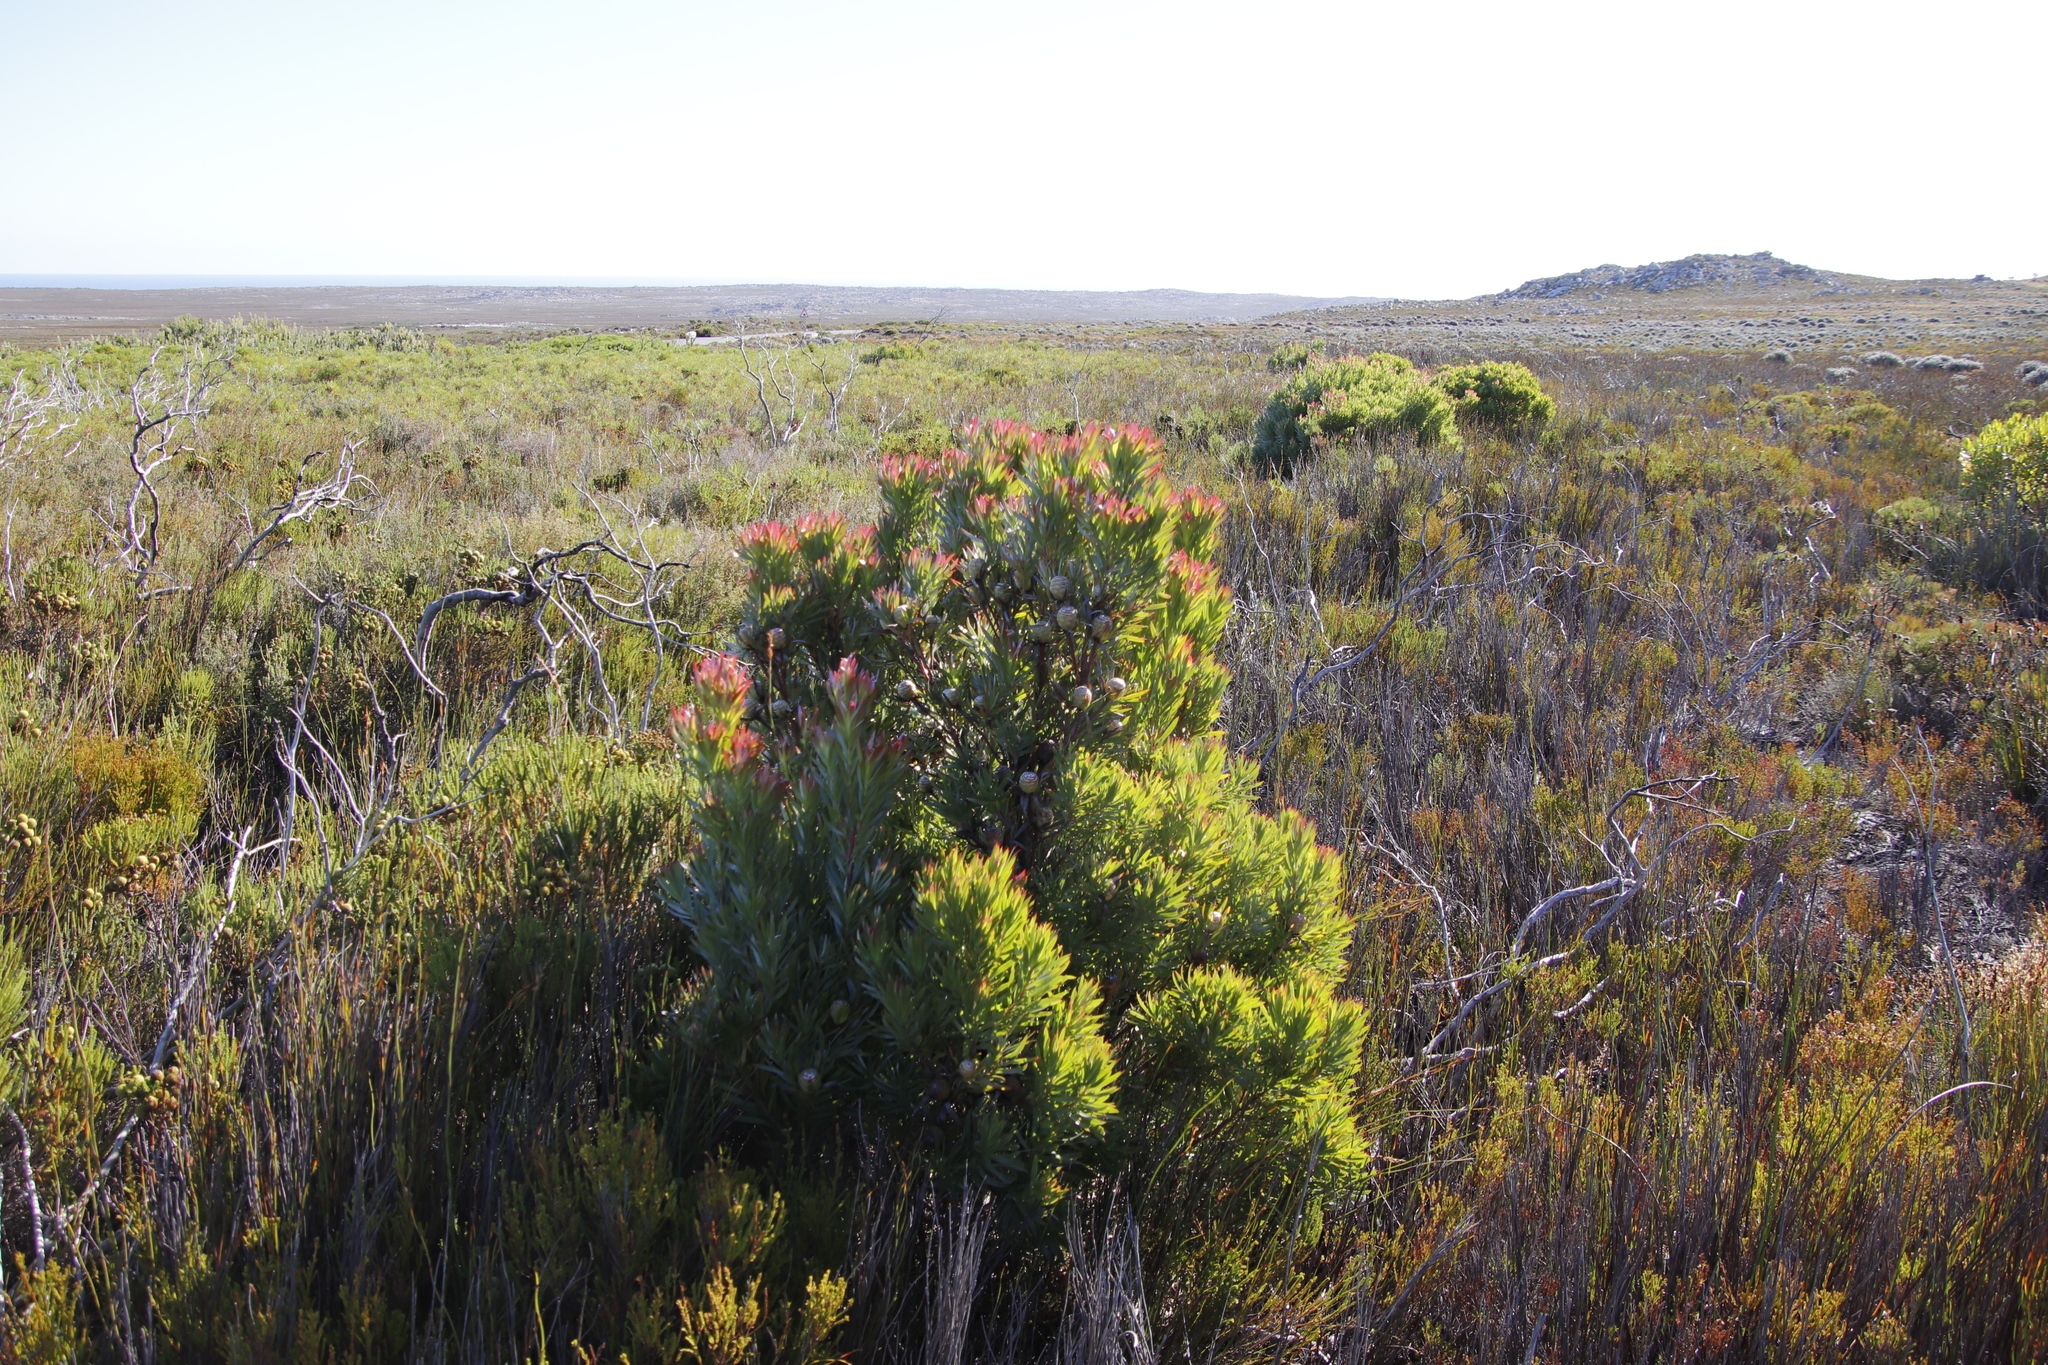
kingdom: Plantae
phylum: Tracheophyta
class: Magnoliopsida
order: Proteales
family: Proteaceae
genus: Leucadendron
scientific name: Leucadendron xanthoconus
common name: Sickle-leaf conebush
